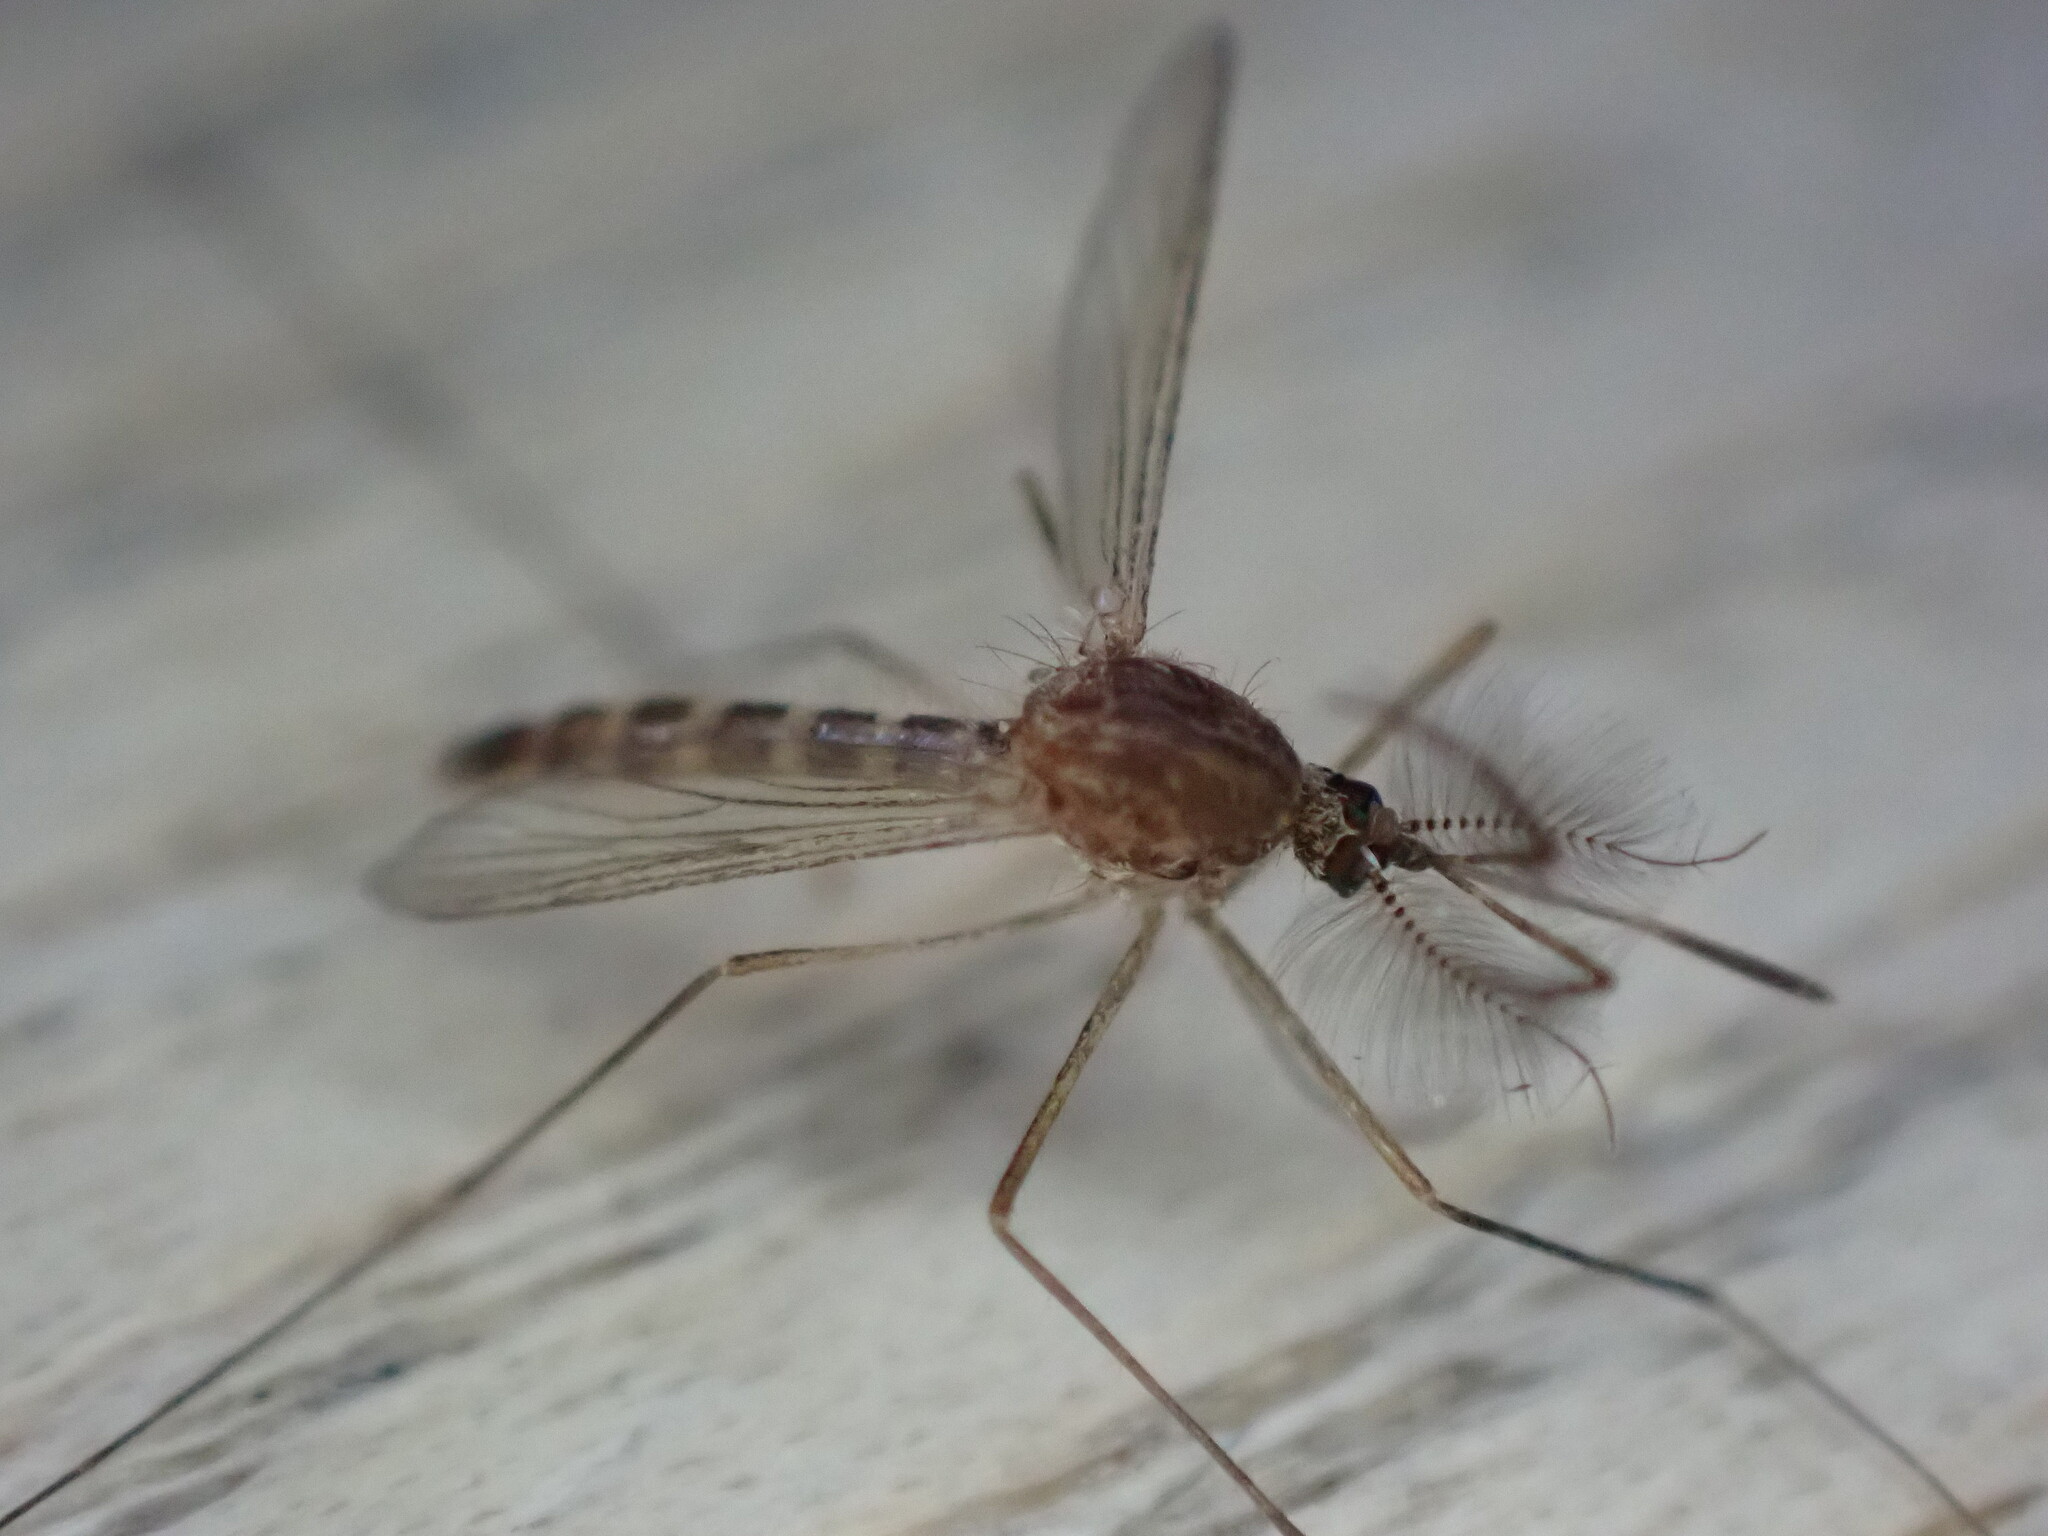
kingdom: Animalia
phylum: Arthropoda
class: Insecta
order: Diptera
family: Culicidae
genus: Culex
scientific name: Culex
